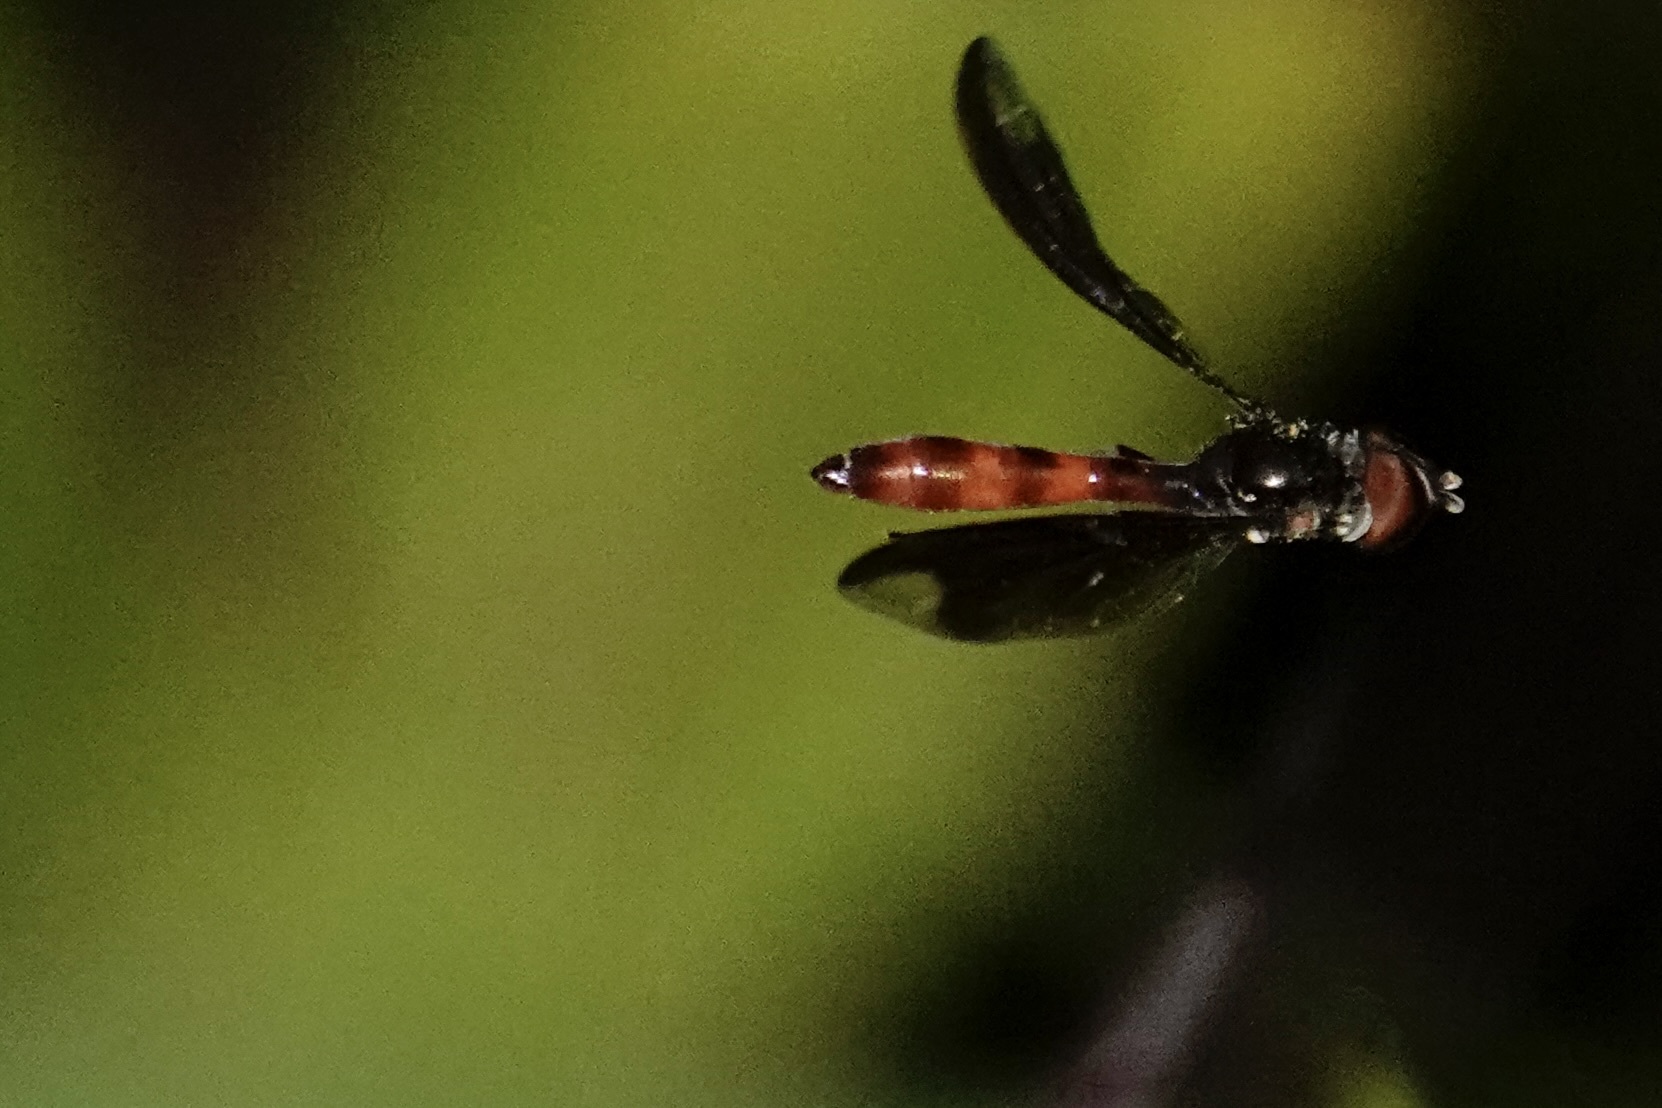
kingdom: Animalia
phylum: Arthropoda
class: Insecta
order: Diptera
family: Syrphidae
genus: Ocyptamus
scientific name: Ocyptamus fuscipennis
